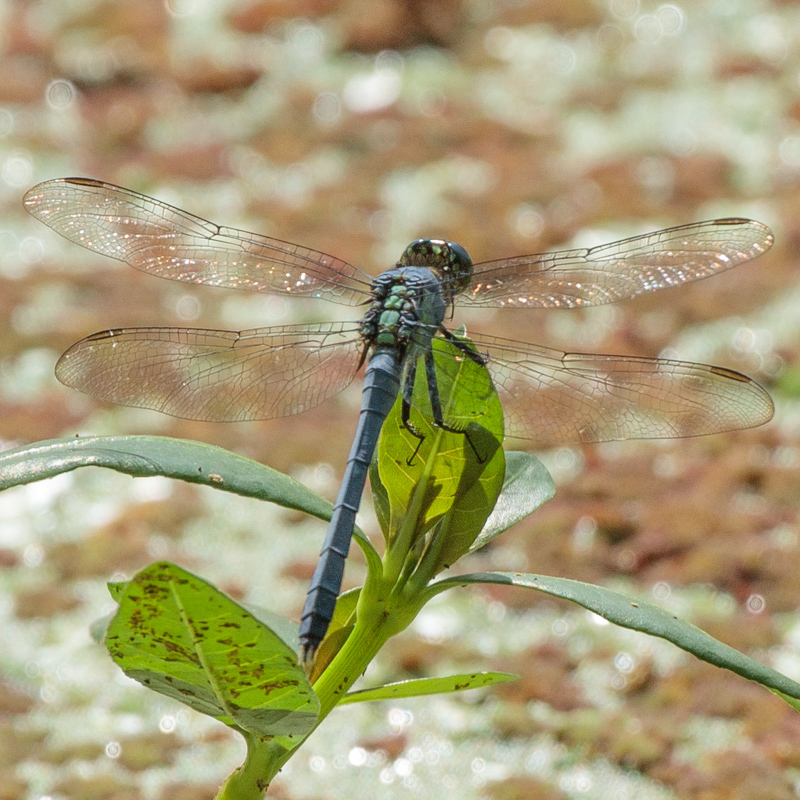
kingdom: Animalia
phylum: Arthropoda
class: Insecta
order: Odonata
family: Libellulidae
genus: Erythemis
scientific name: Erythemis simplicicollis
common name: Eastern pondhawk
